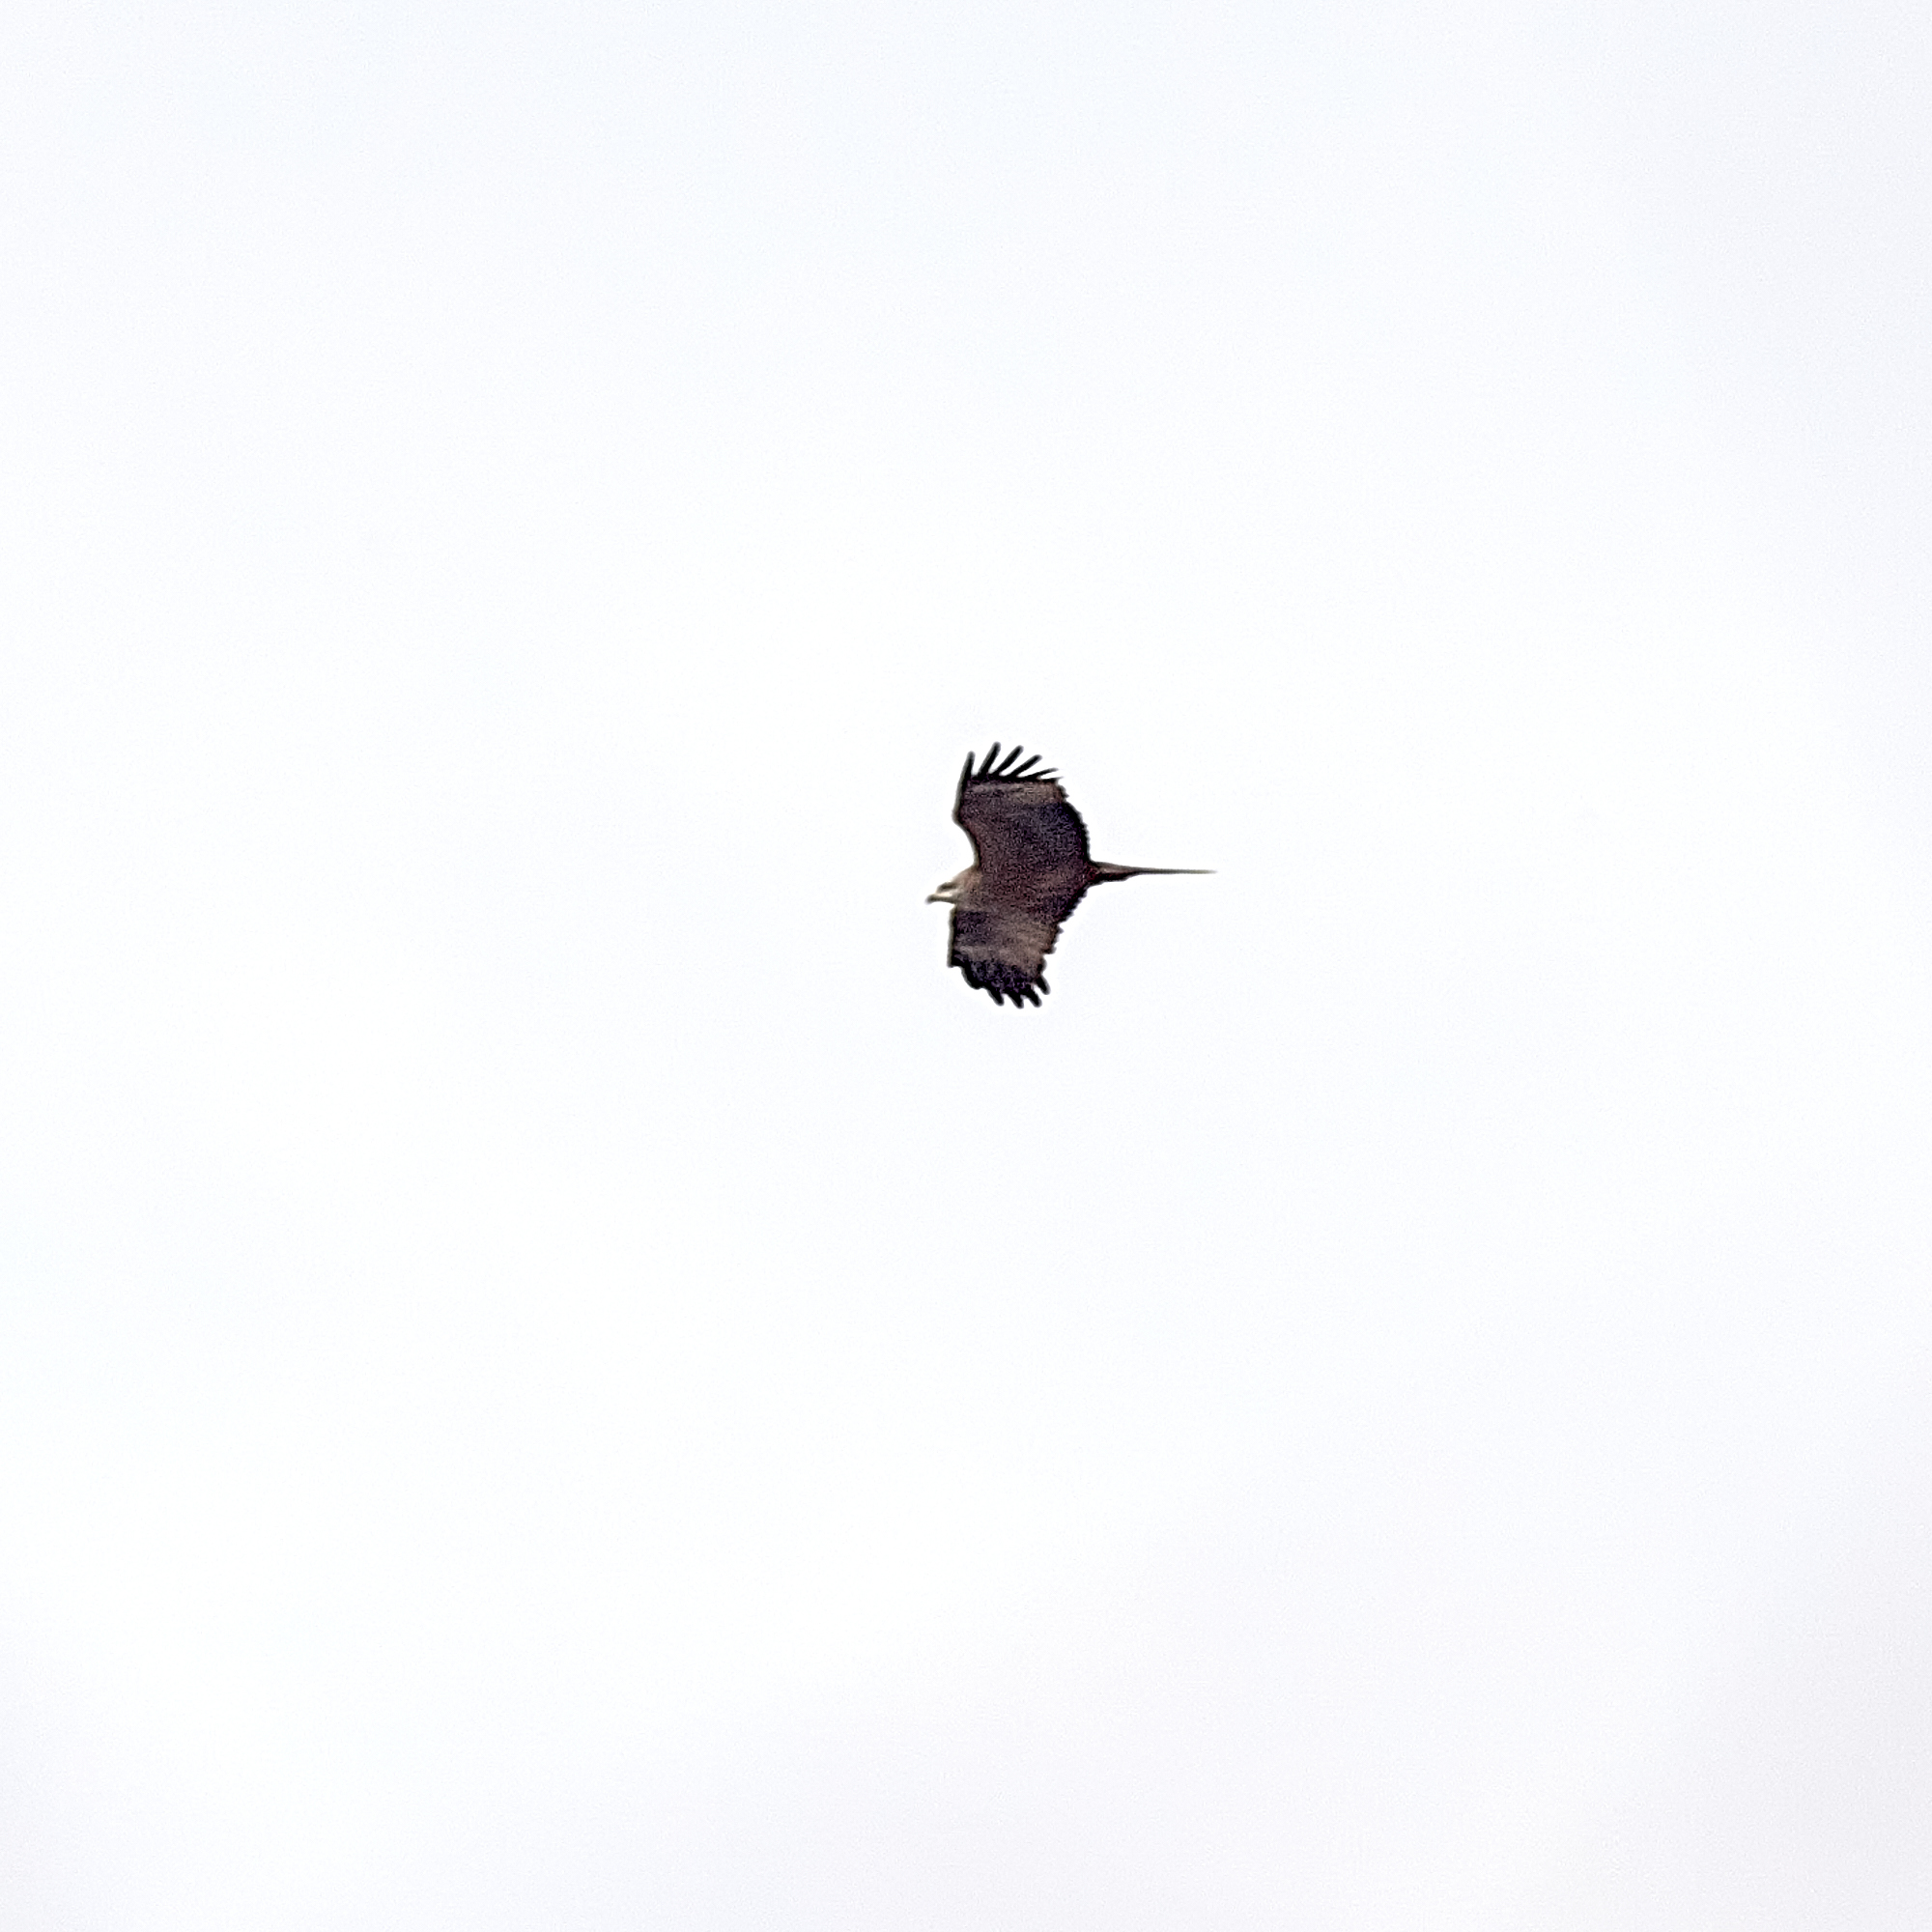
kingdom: Animalia
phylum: Chordata
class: Aves
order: Accipitriformes
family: Accipitridae
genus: Milvus
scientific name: Milvus migrans
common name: Black kite
